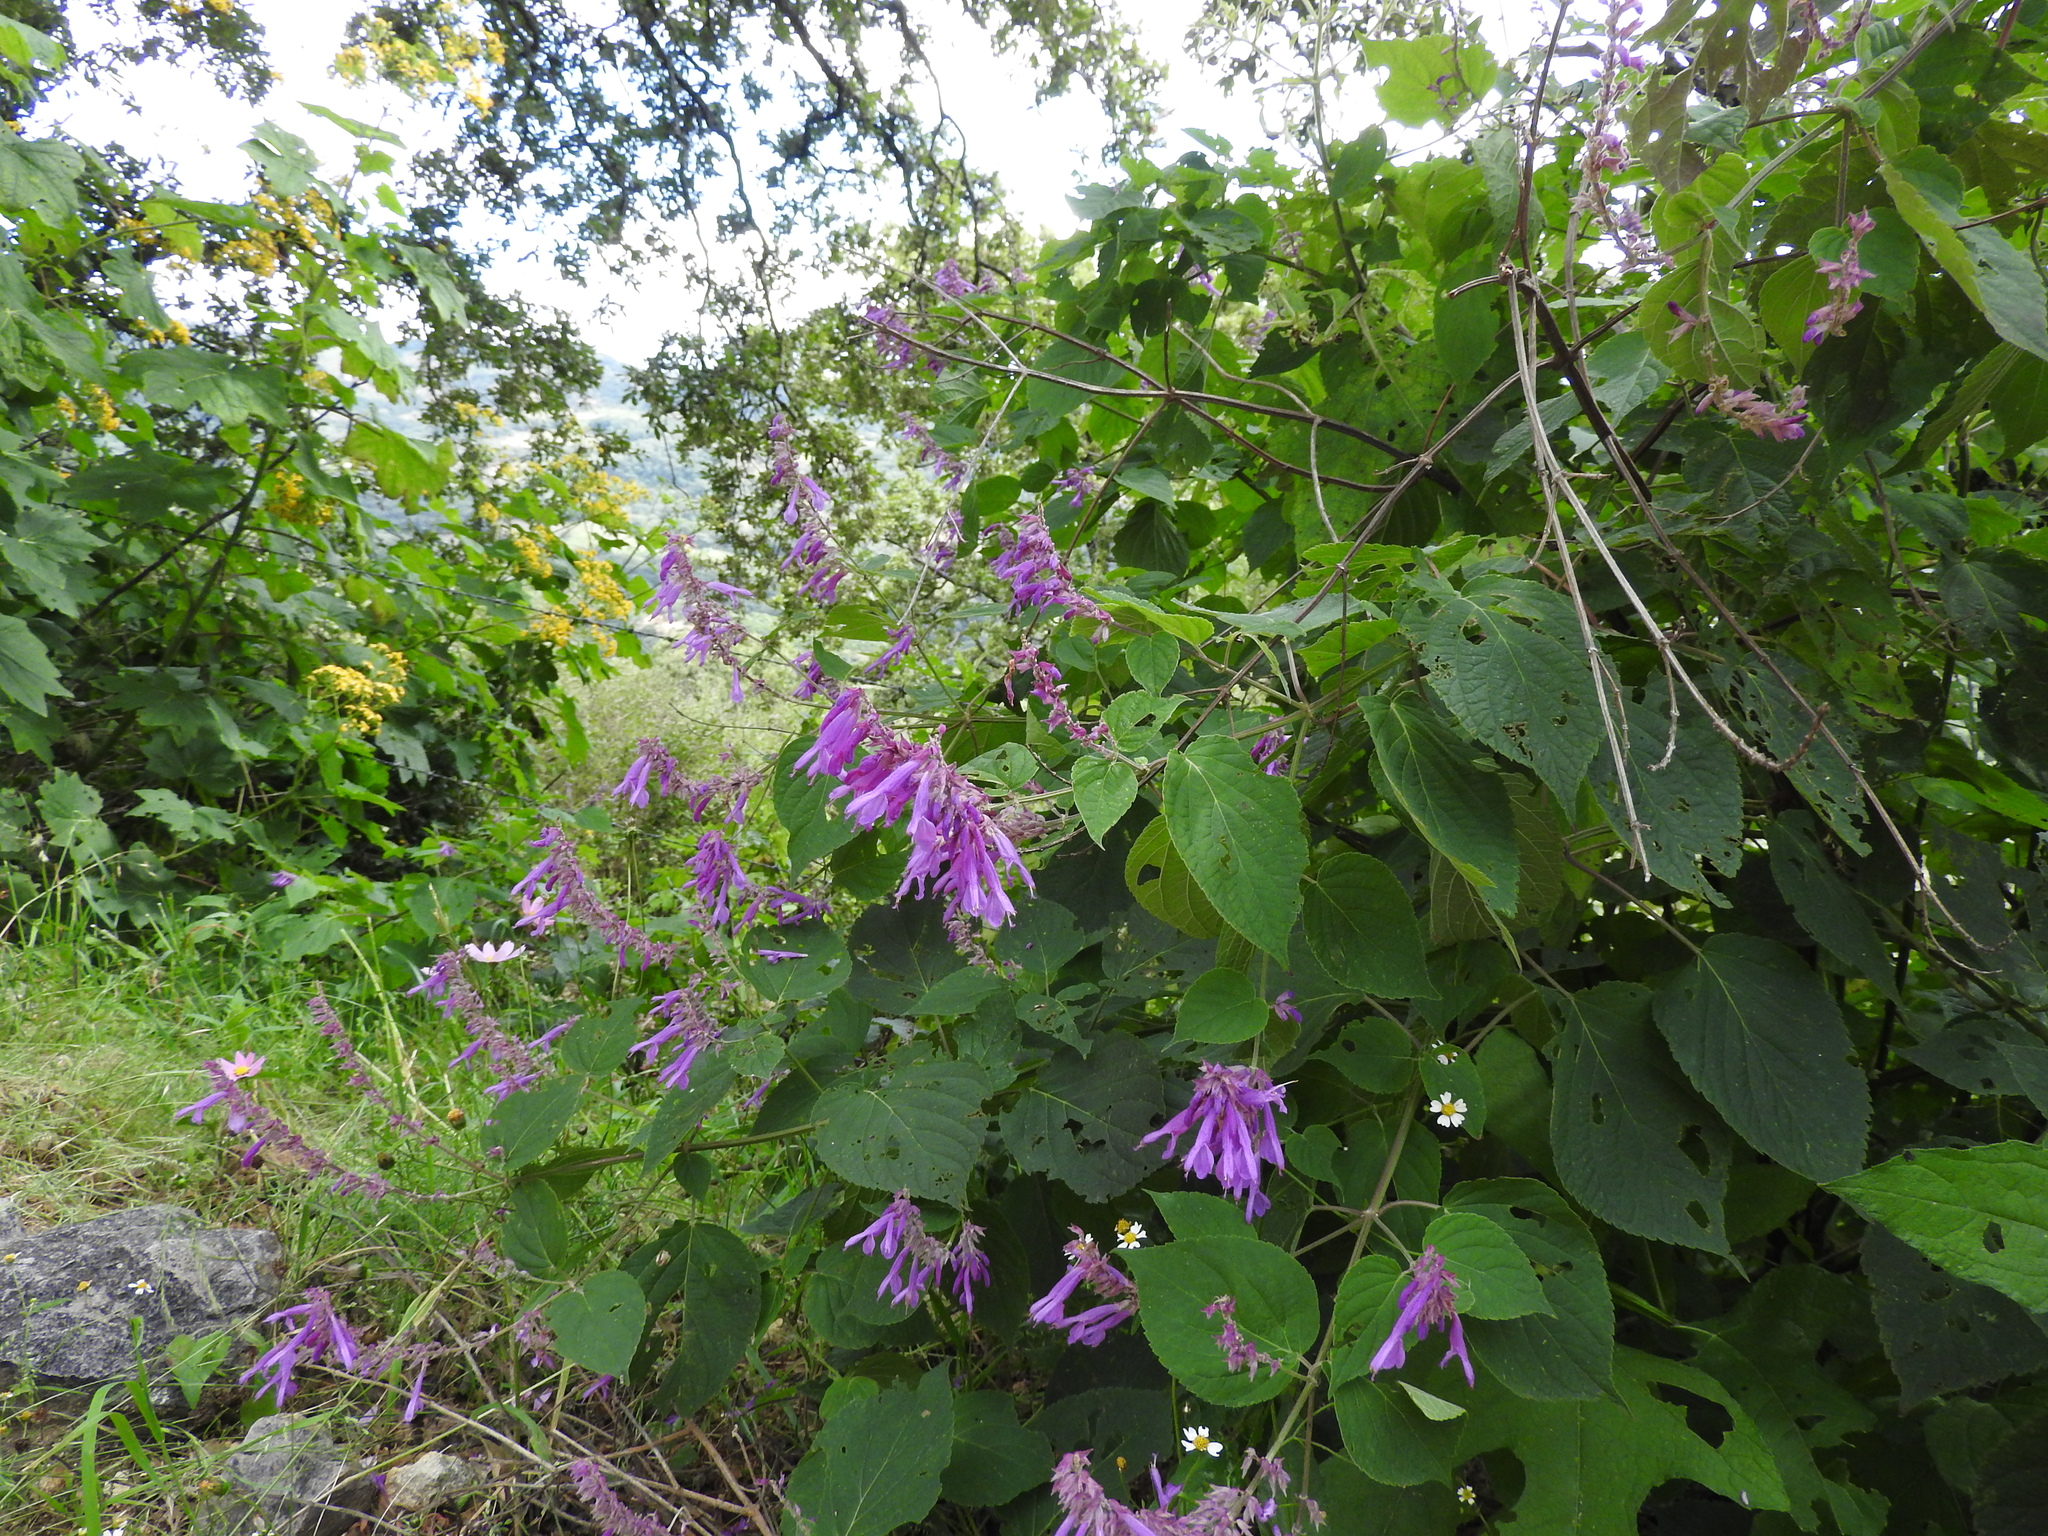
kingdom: Plantae
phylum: Tracheophyta
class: Magnoliopsida
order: Lamiales
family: Lamiaceae
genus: Salvia
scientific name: Salvia purpurea
